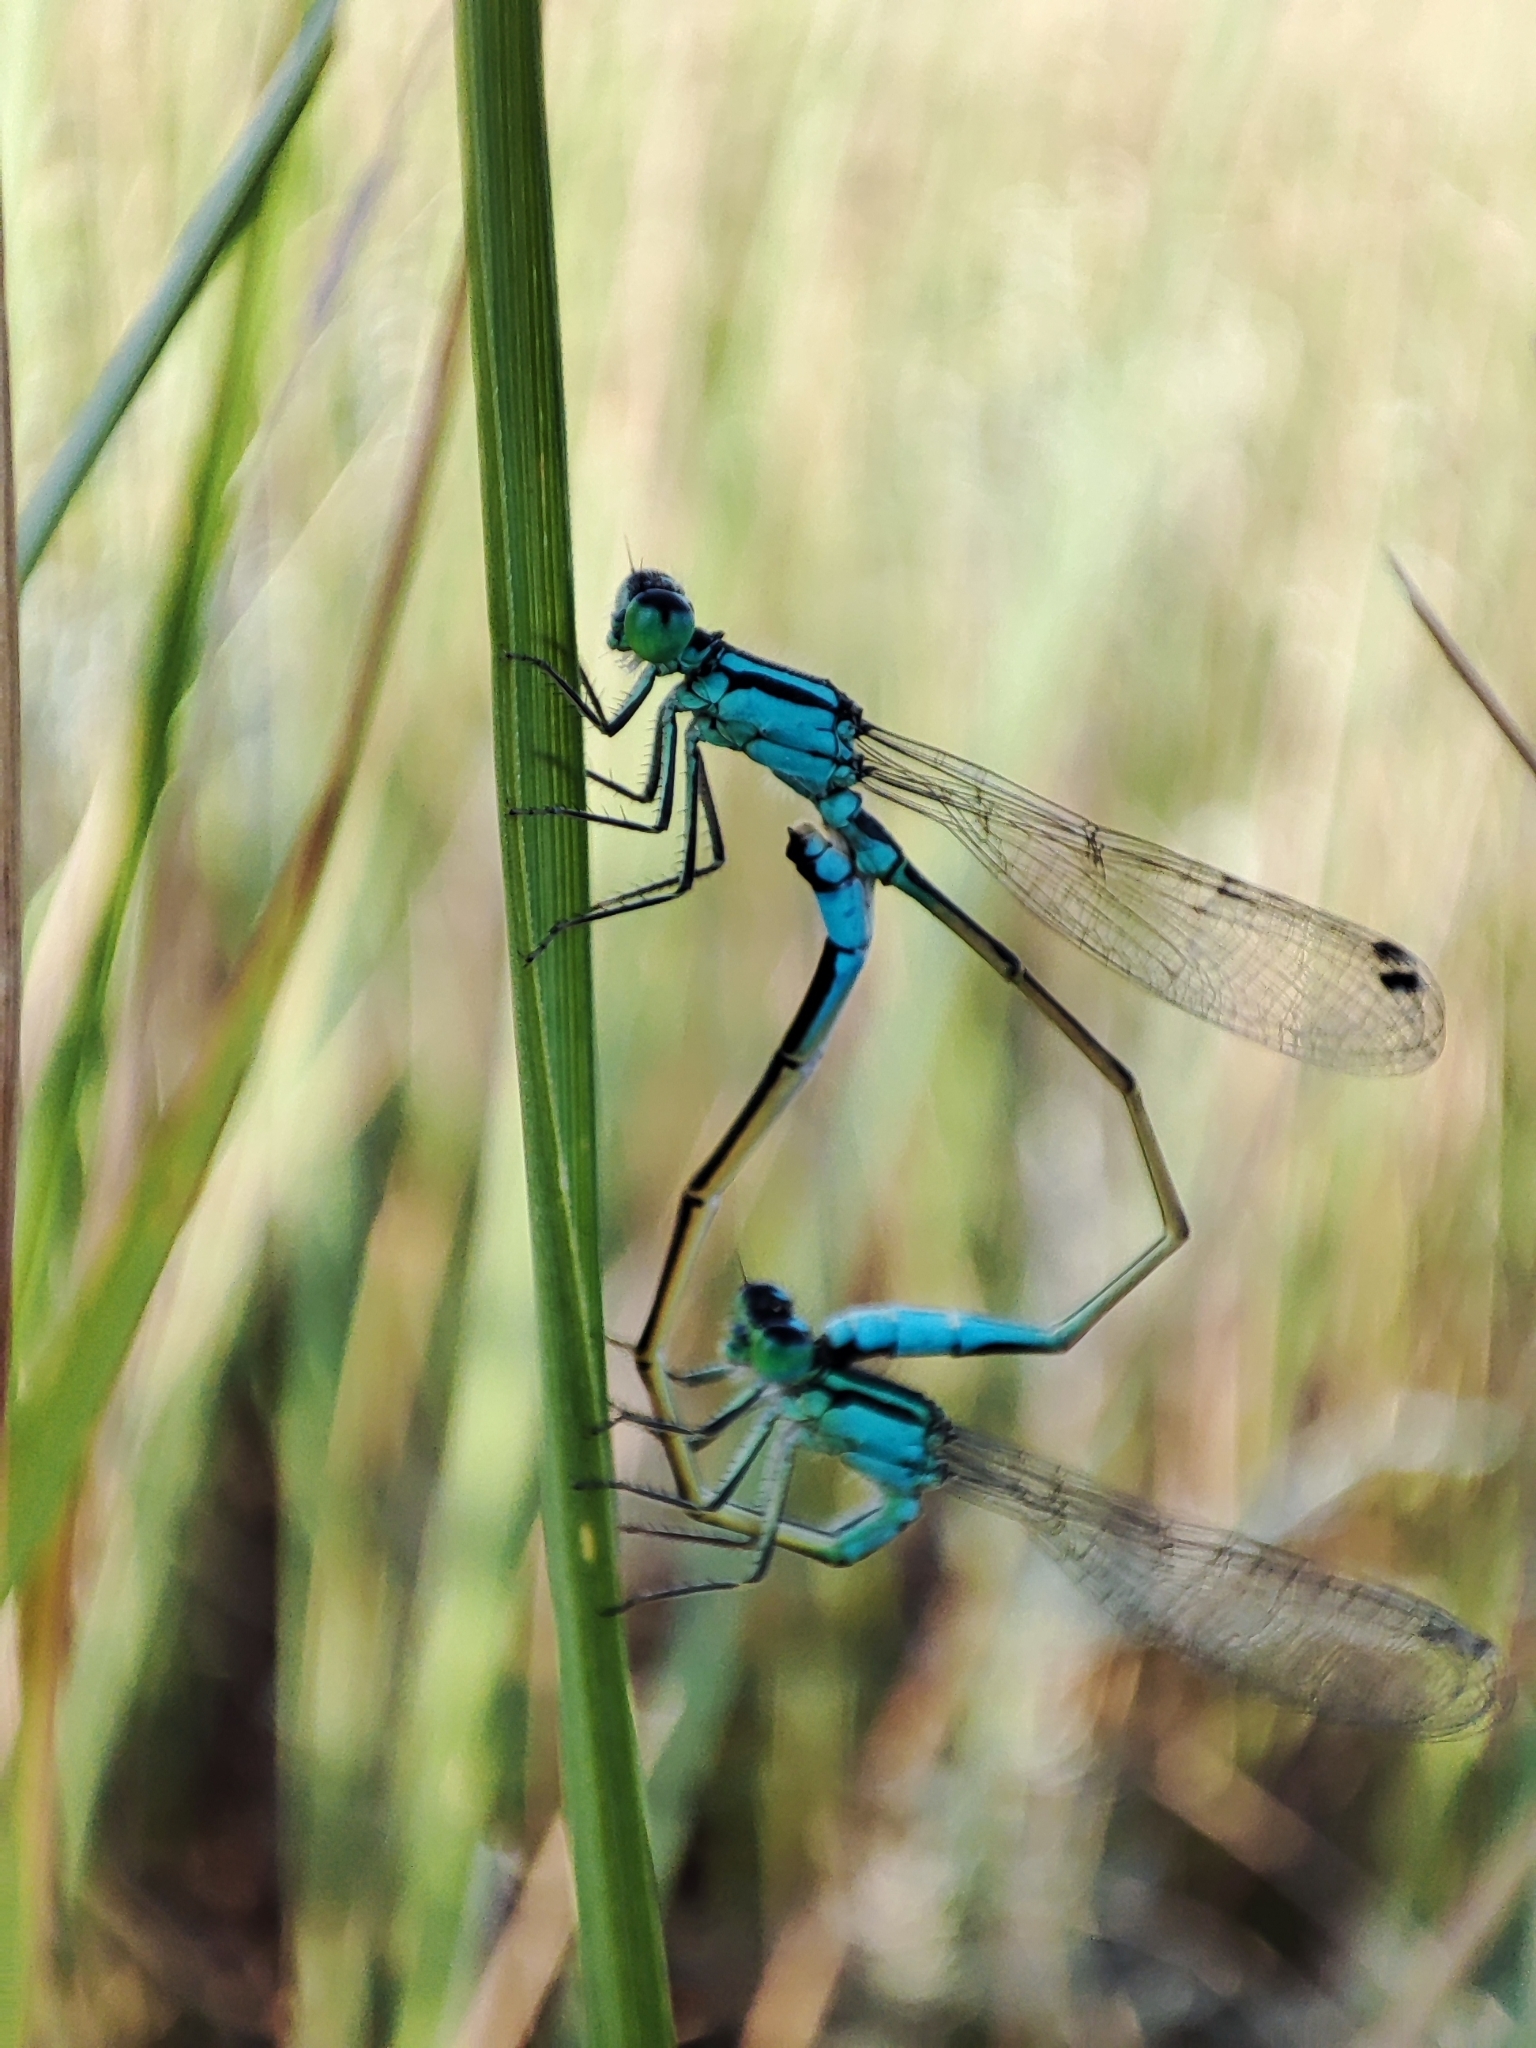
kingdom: Animalia
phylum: Arthropoda
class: Insecta
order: Odonata
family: Coenagrionidae
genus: Ischnura
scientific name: Ischnura elegans
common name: Blue-tailed damselfly
